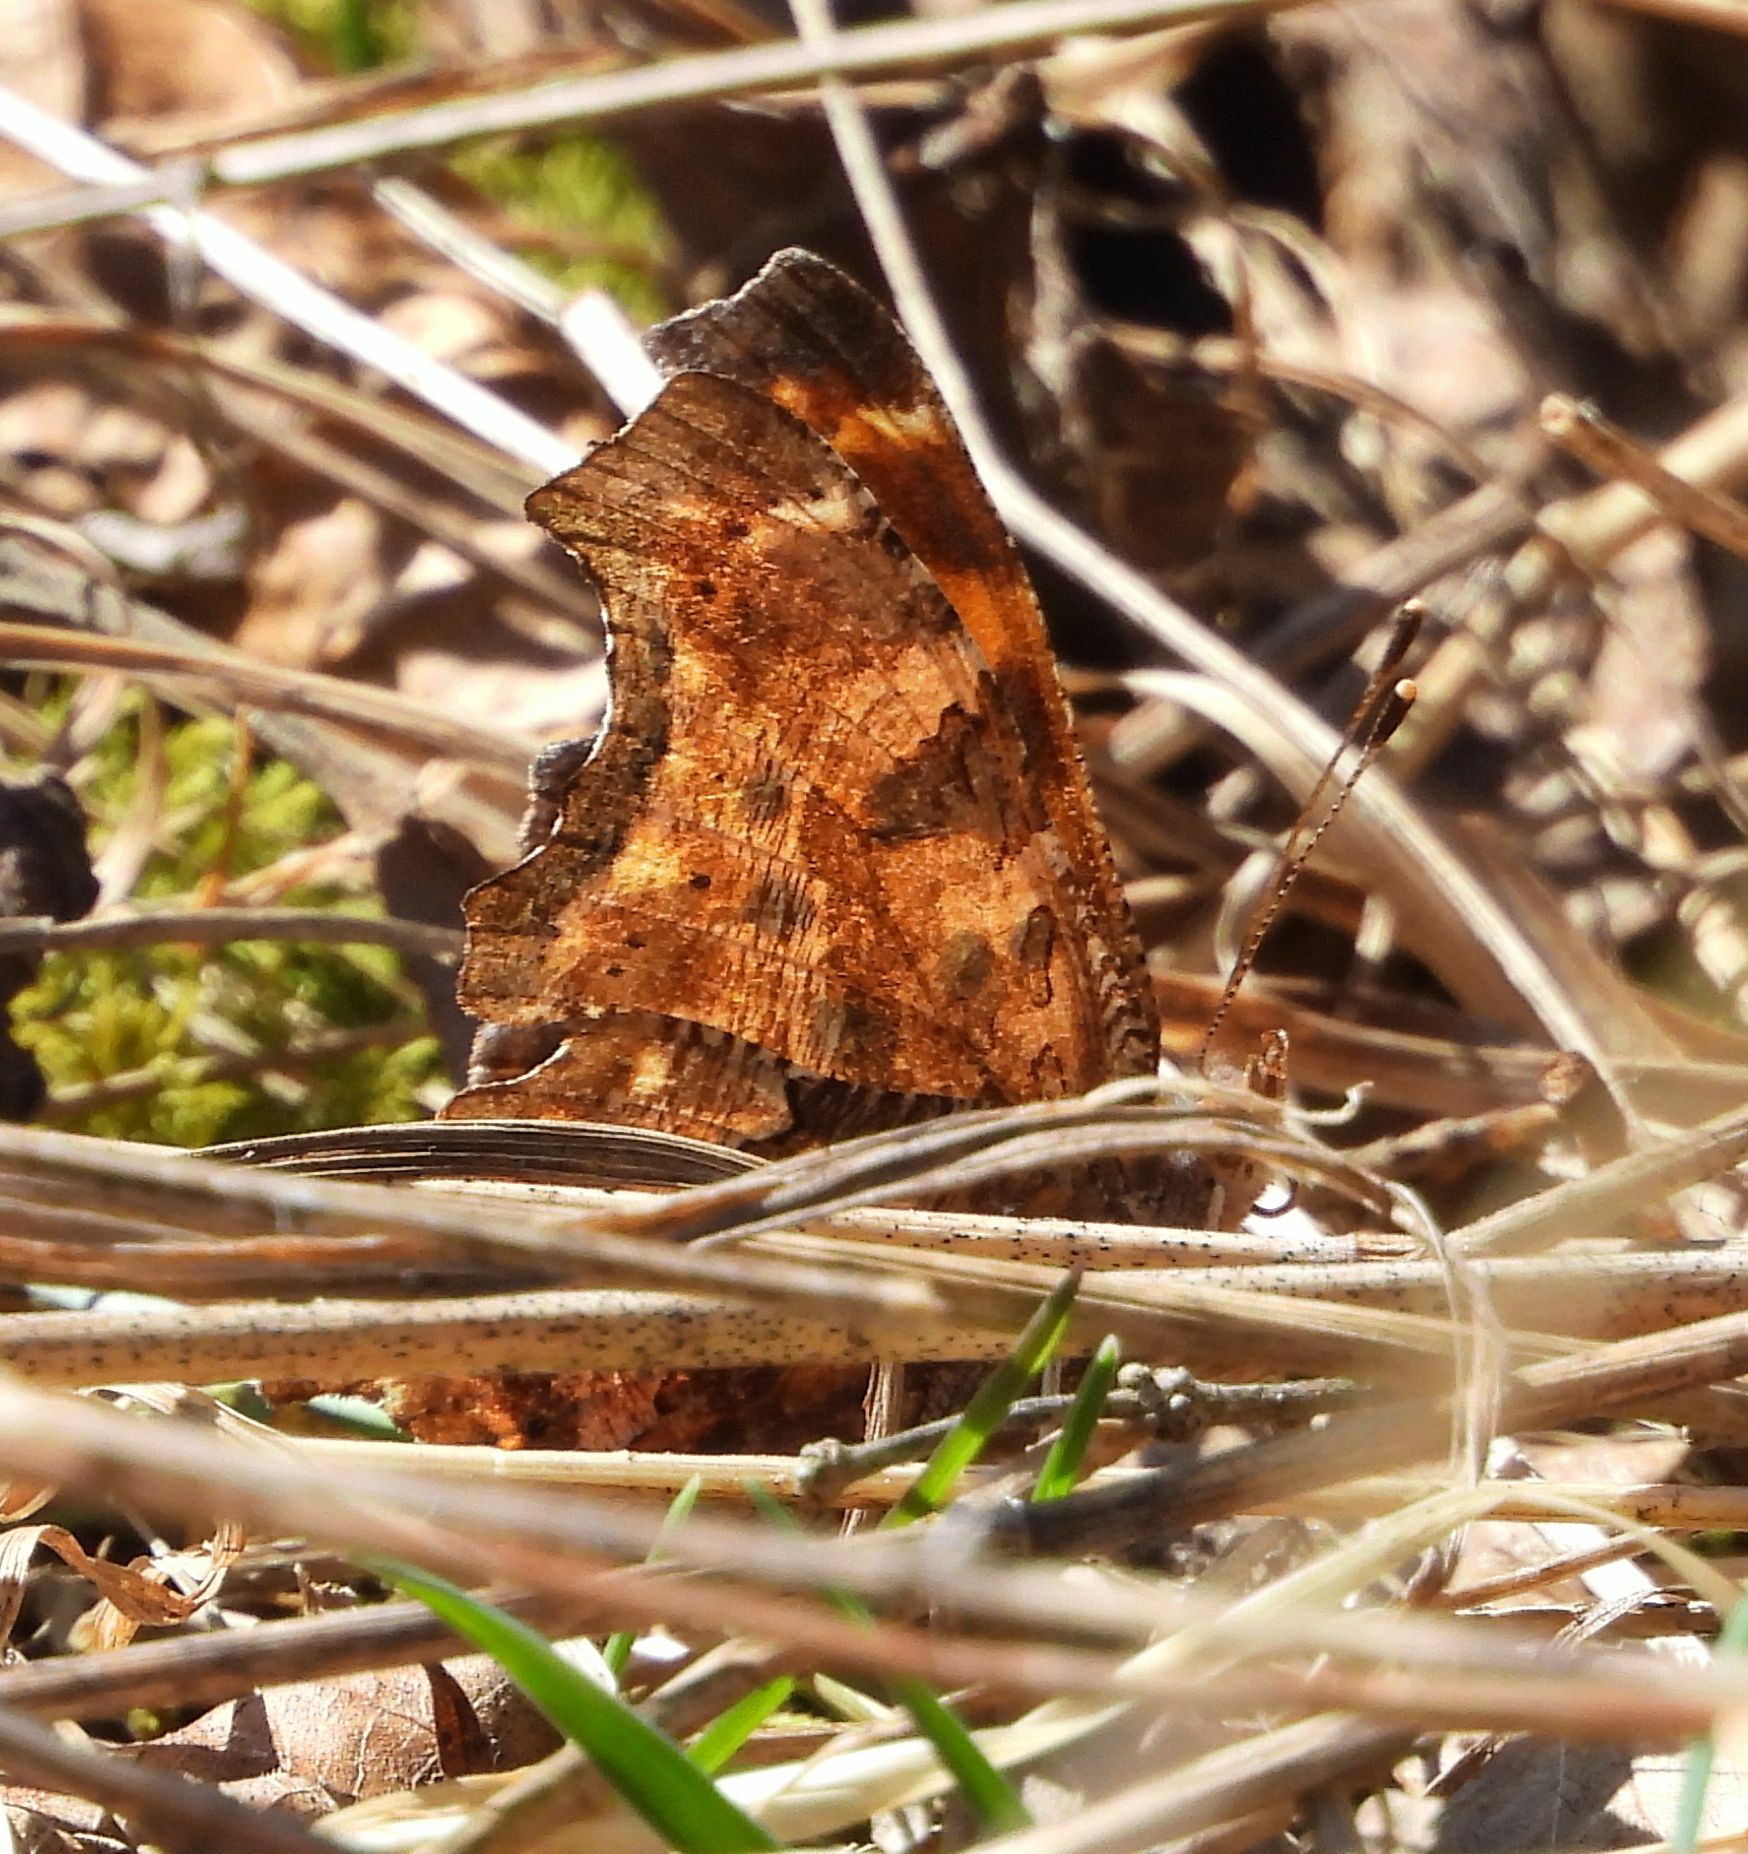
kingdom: Animalia
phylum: Arthropoda
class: Insecta
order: Lepidoptera
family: Nymphalidae
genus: Polygonia
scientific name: Polygonia comma
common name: Eastern comma
